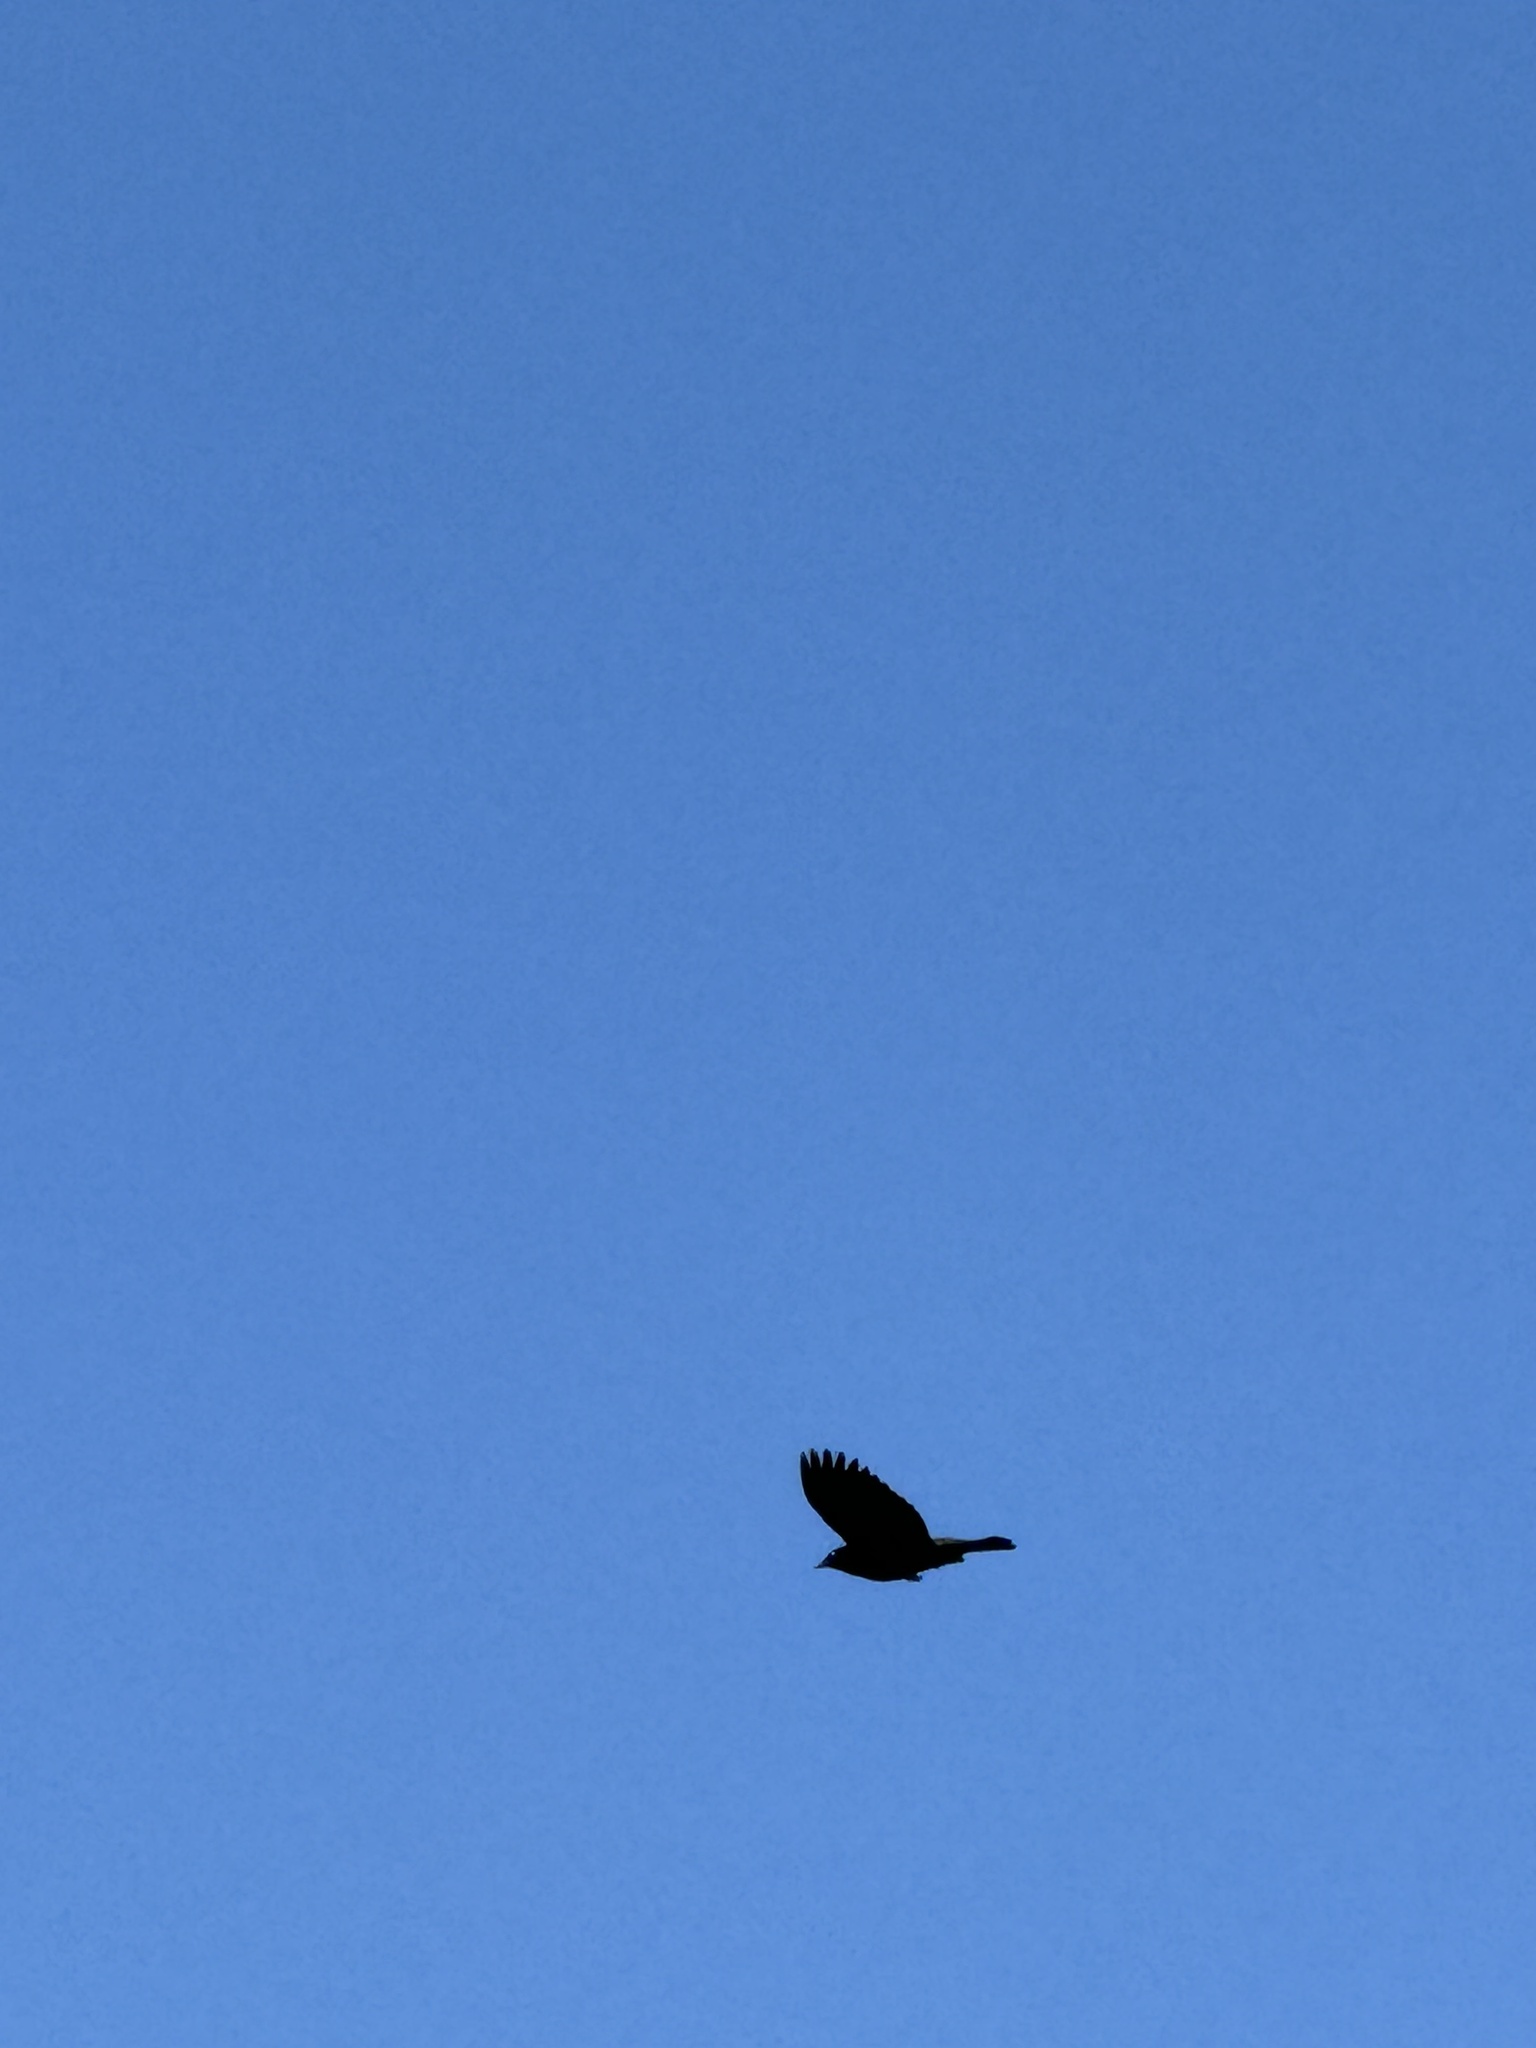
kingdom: Animalia
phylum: Chordata
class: Aves
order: Passeriformes
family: Icteridae
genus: Euphagus
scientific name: Euphagus cyanocephalus
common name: Brewer's blackbird
